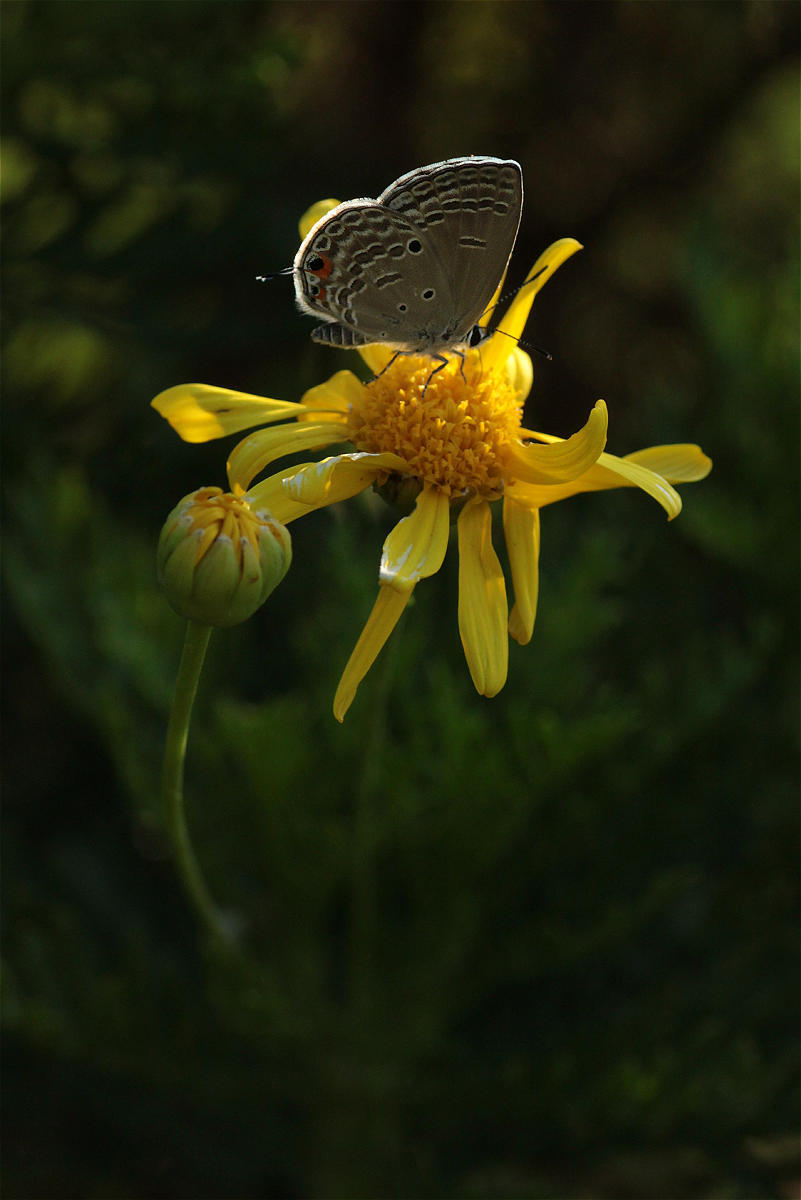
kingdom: Animalia
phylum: Arthropoda
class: Insecta
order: Lepidoptera
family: Lycaenidae
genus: Luthrodes
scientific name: Luthrodes pandava
